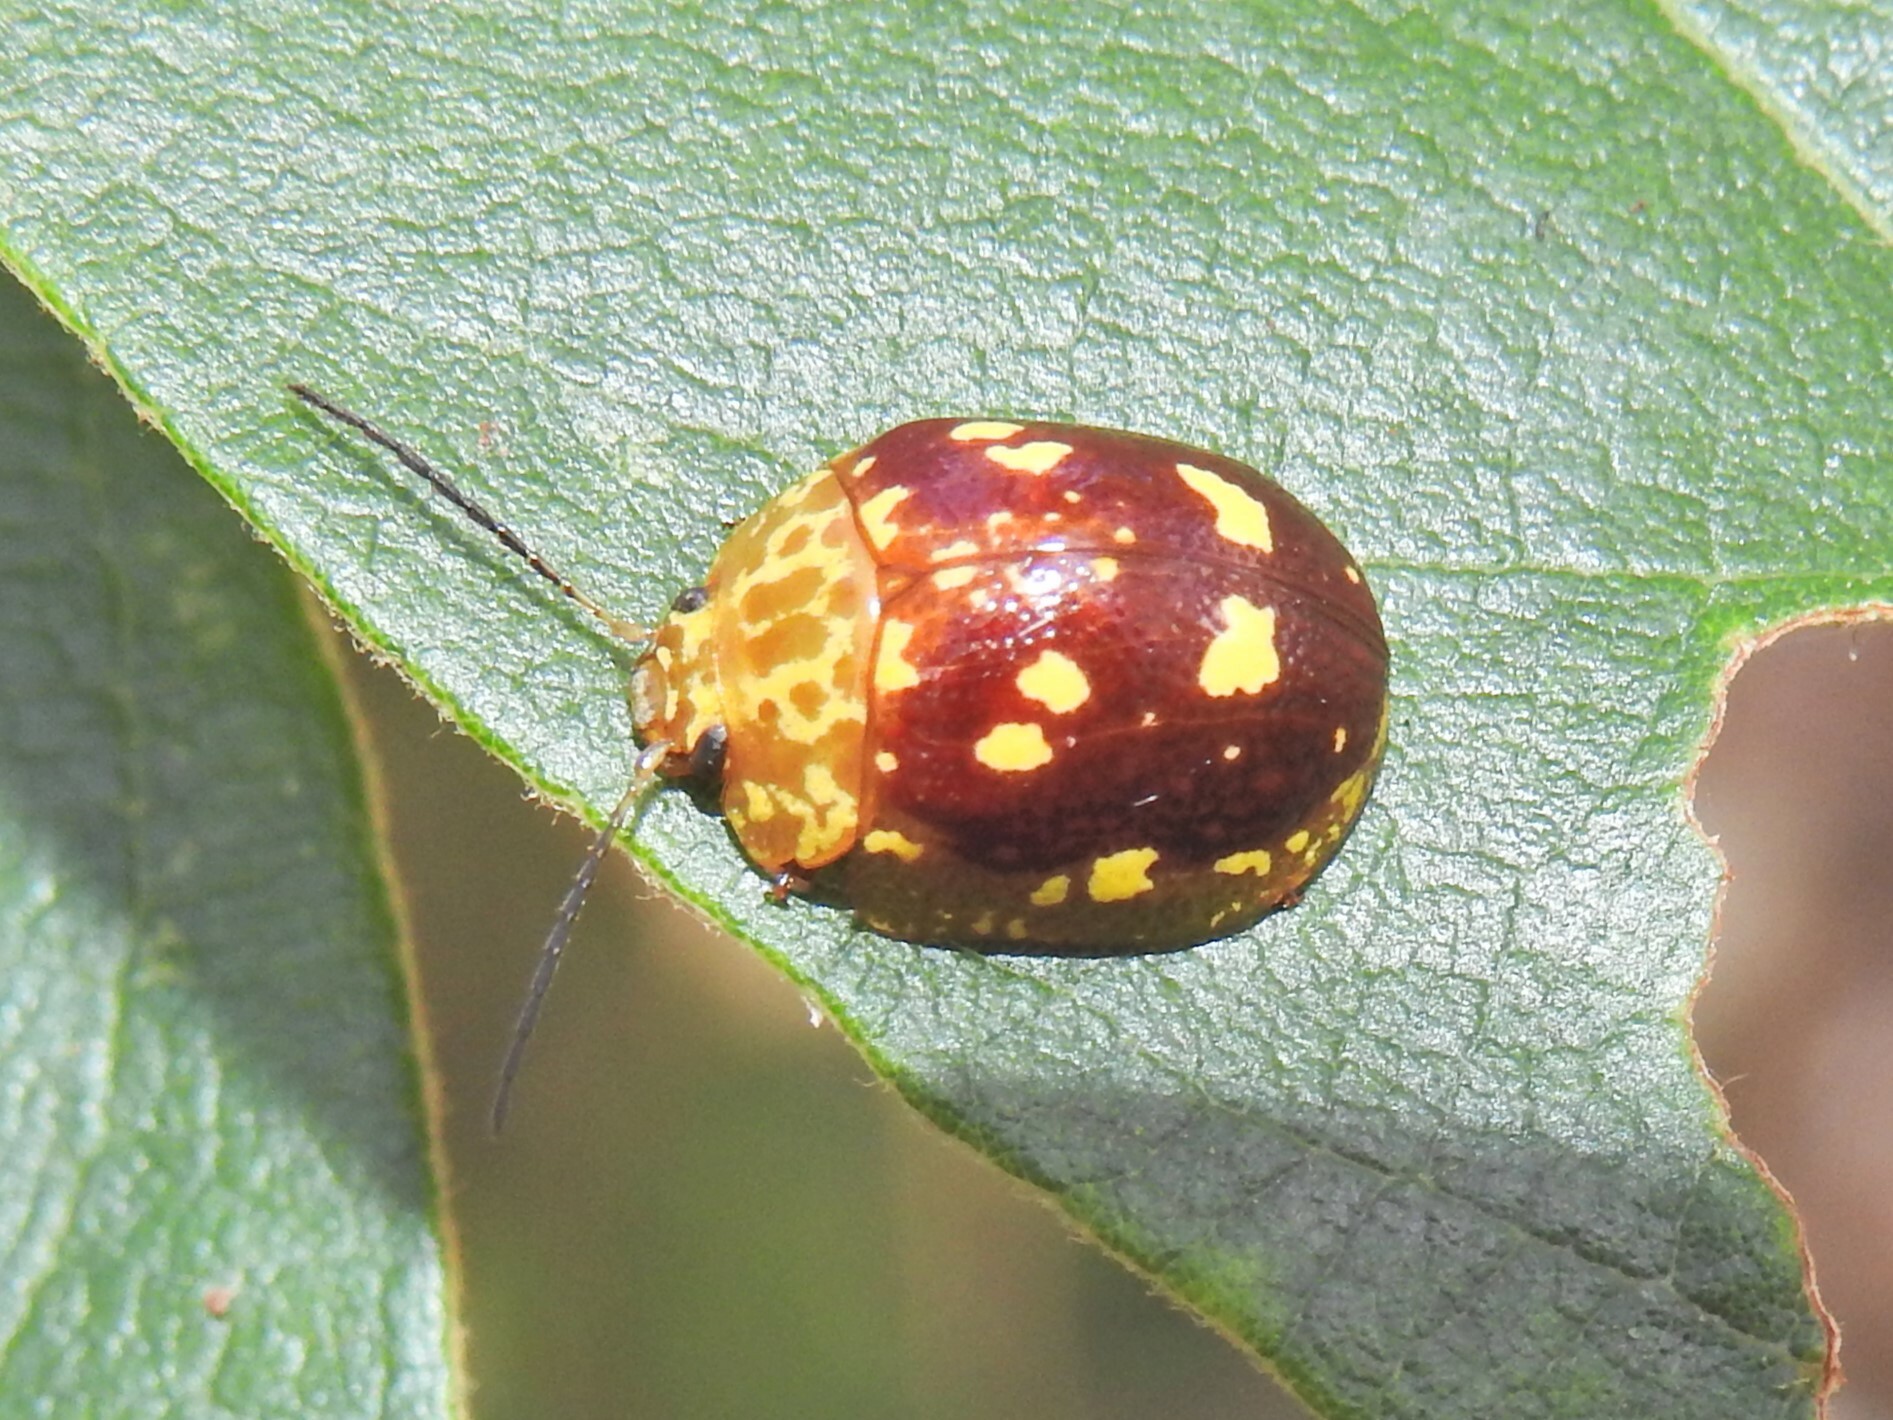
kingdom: Animalia
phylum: Arthropoda
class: Insecta
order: Coleoptera
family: Chrysomelidae
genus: Paropsis
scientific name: Paropsis maculata
